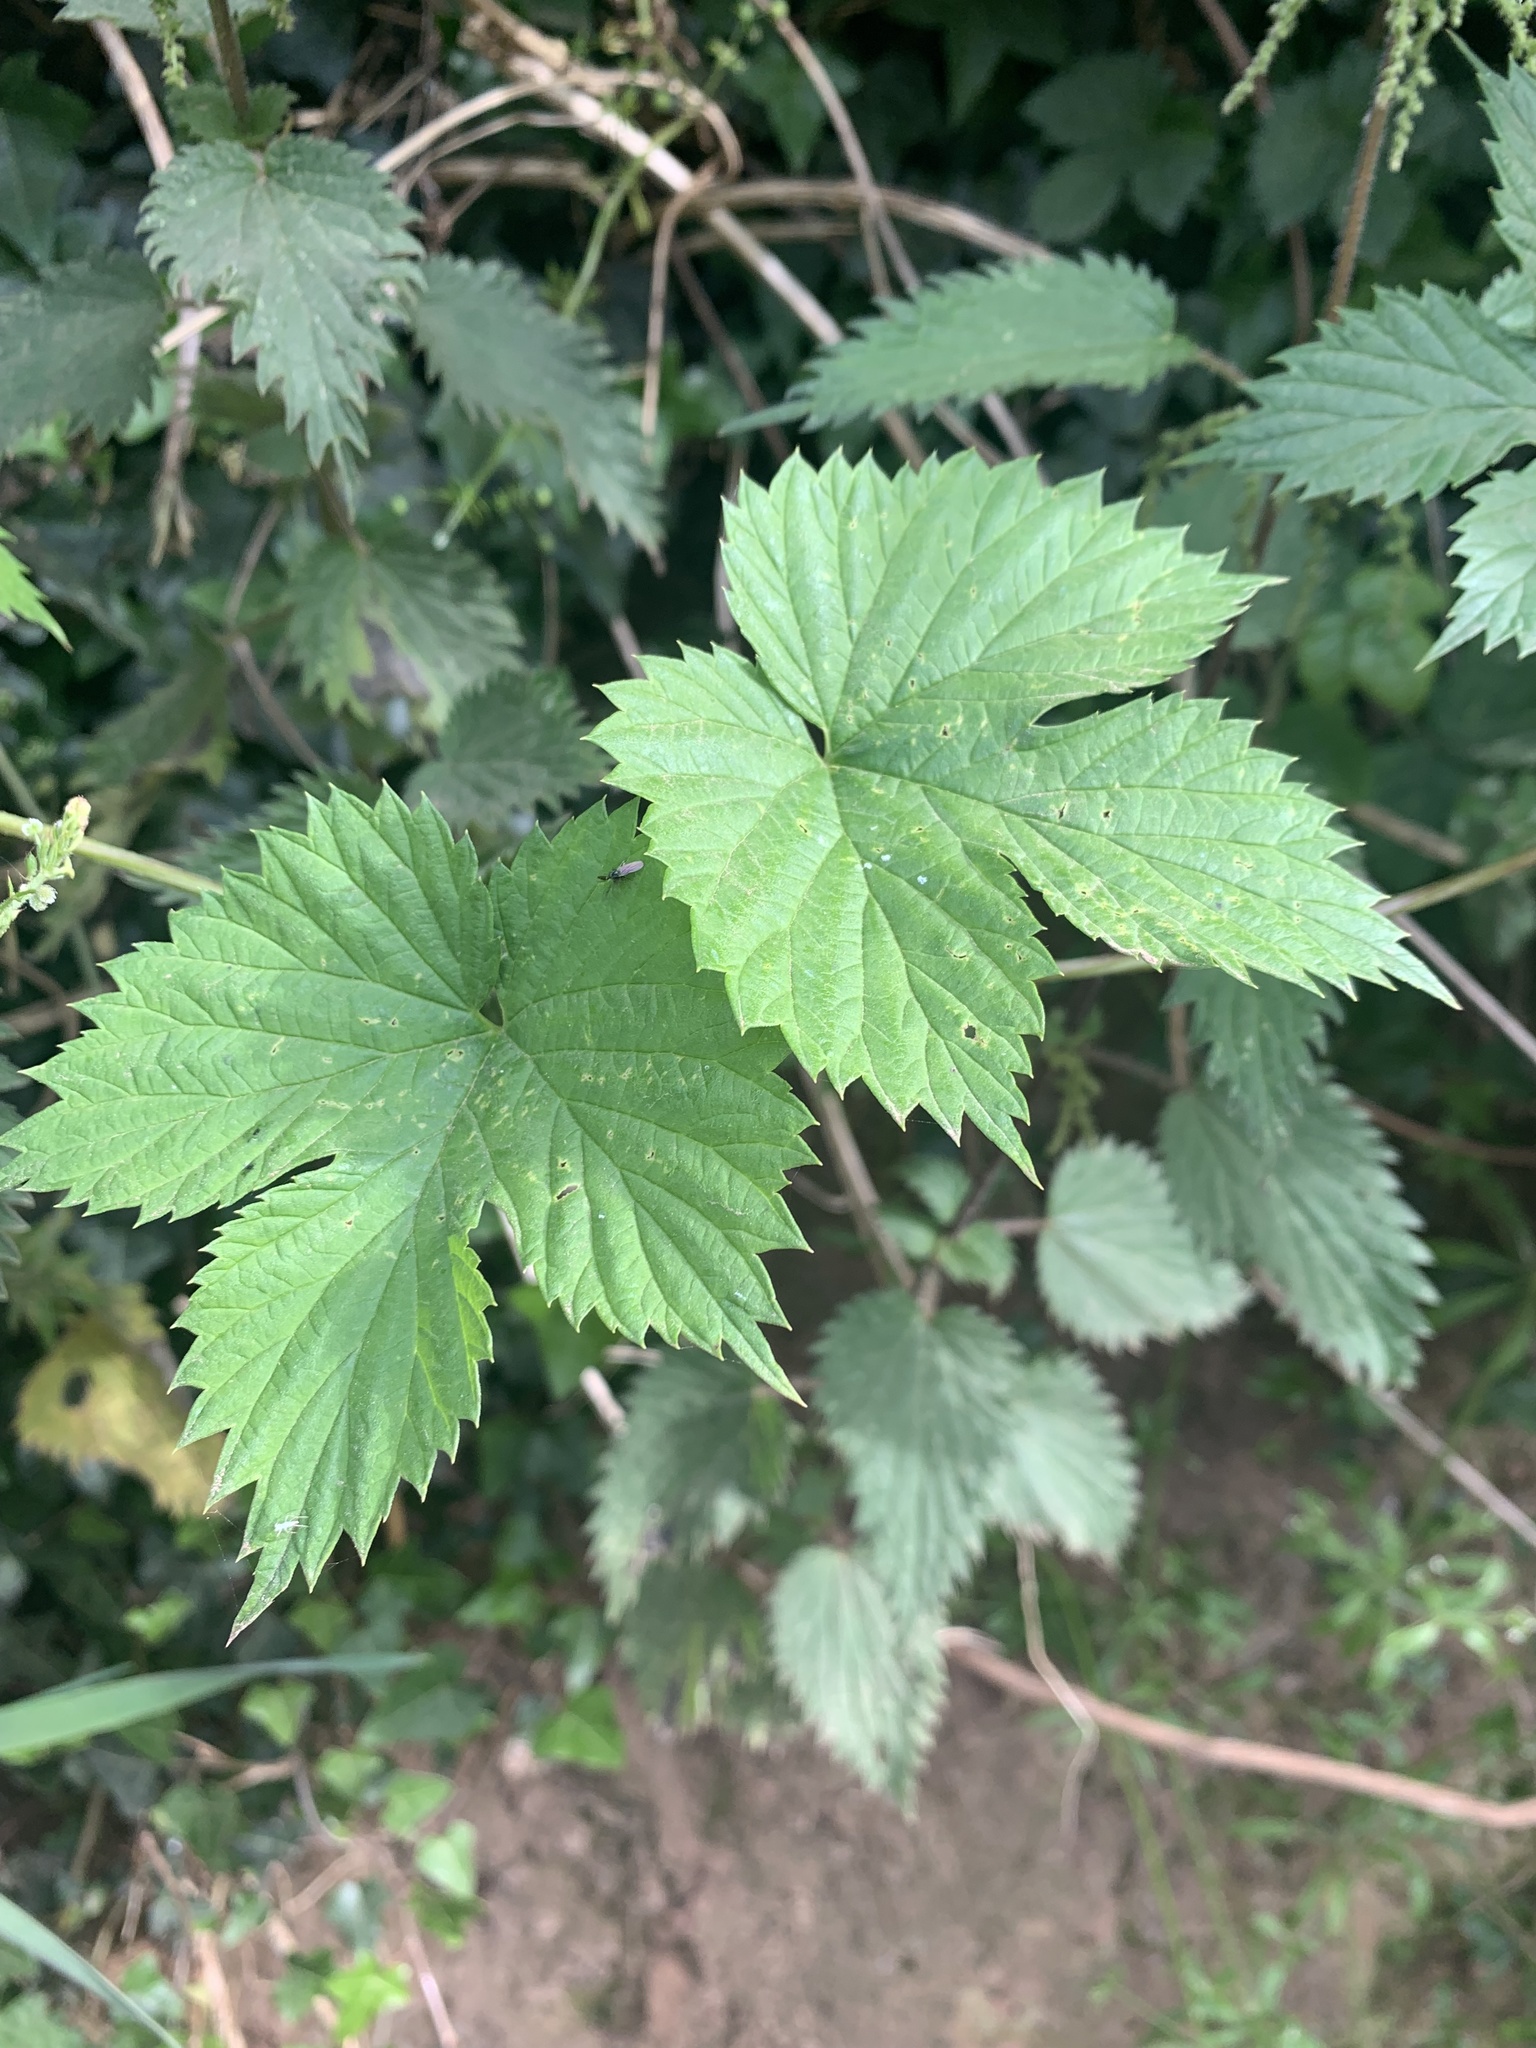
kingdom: Plantae
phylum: Tracheophyta
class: Magnoliopsida
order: Rosales
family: Cannabaceae
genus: Humulus
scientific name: Humulus lupulus
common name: Hop
